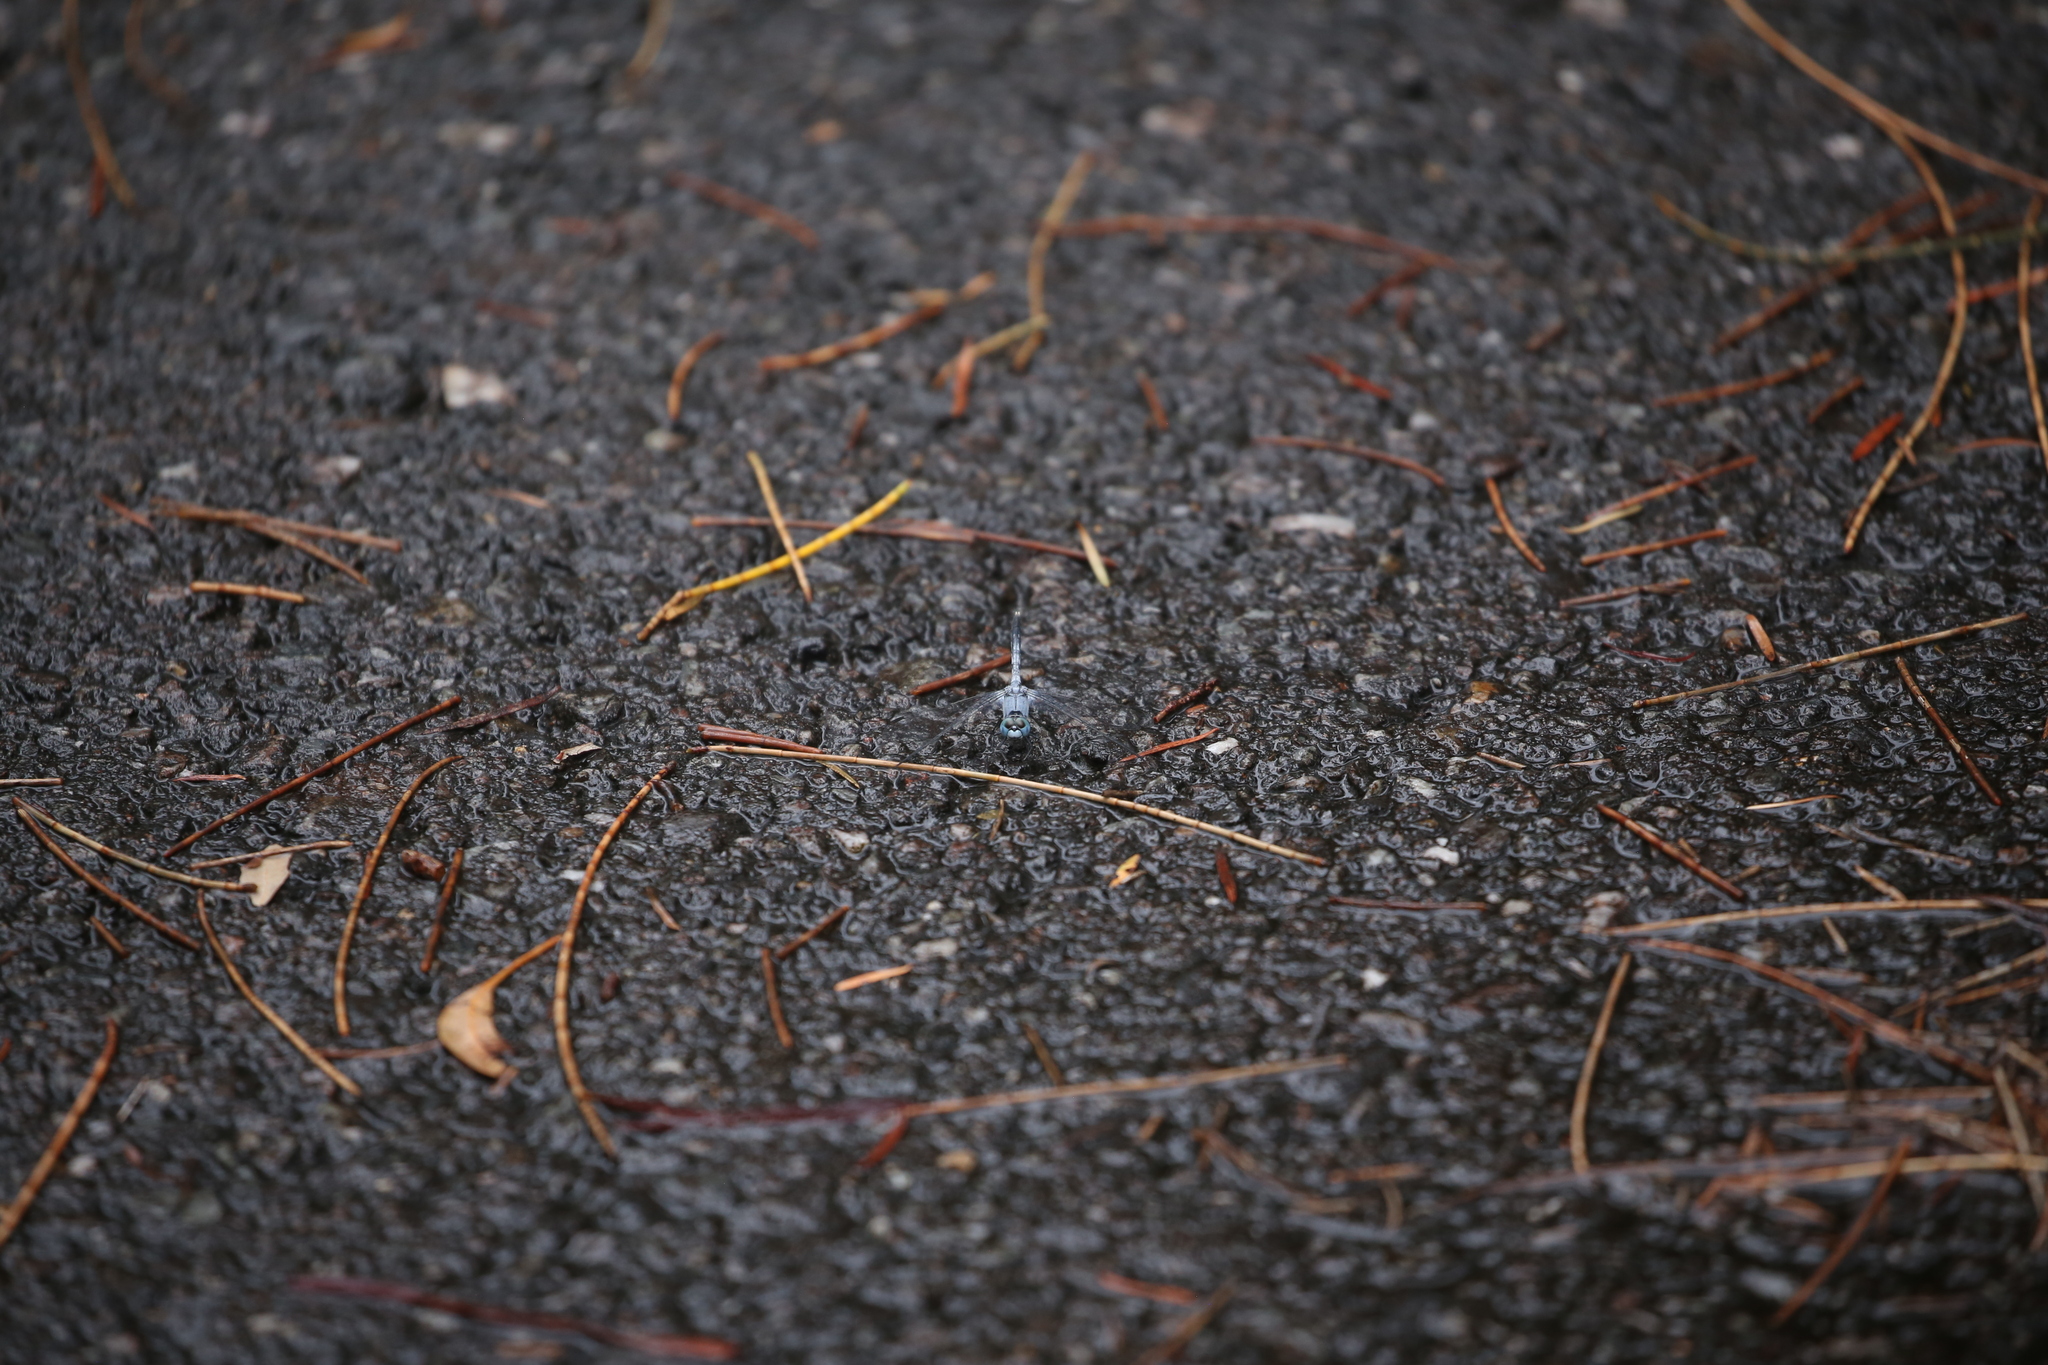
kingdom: Animalia
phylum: Arthropoda
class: Insecta
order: Odonata
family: Libellulidae
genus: Diplacodes
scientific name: Diplacodes trivialis
